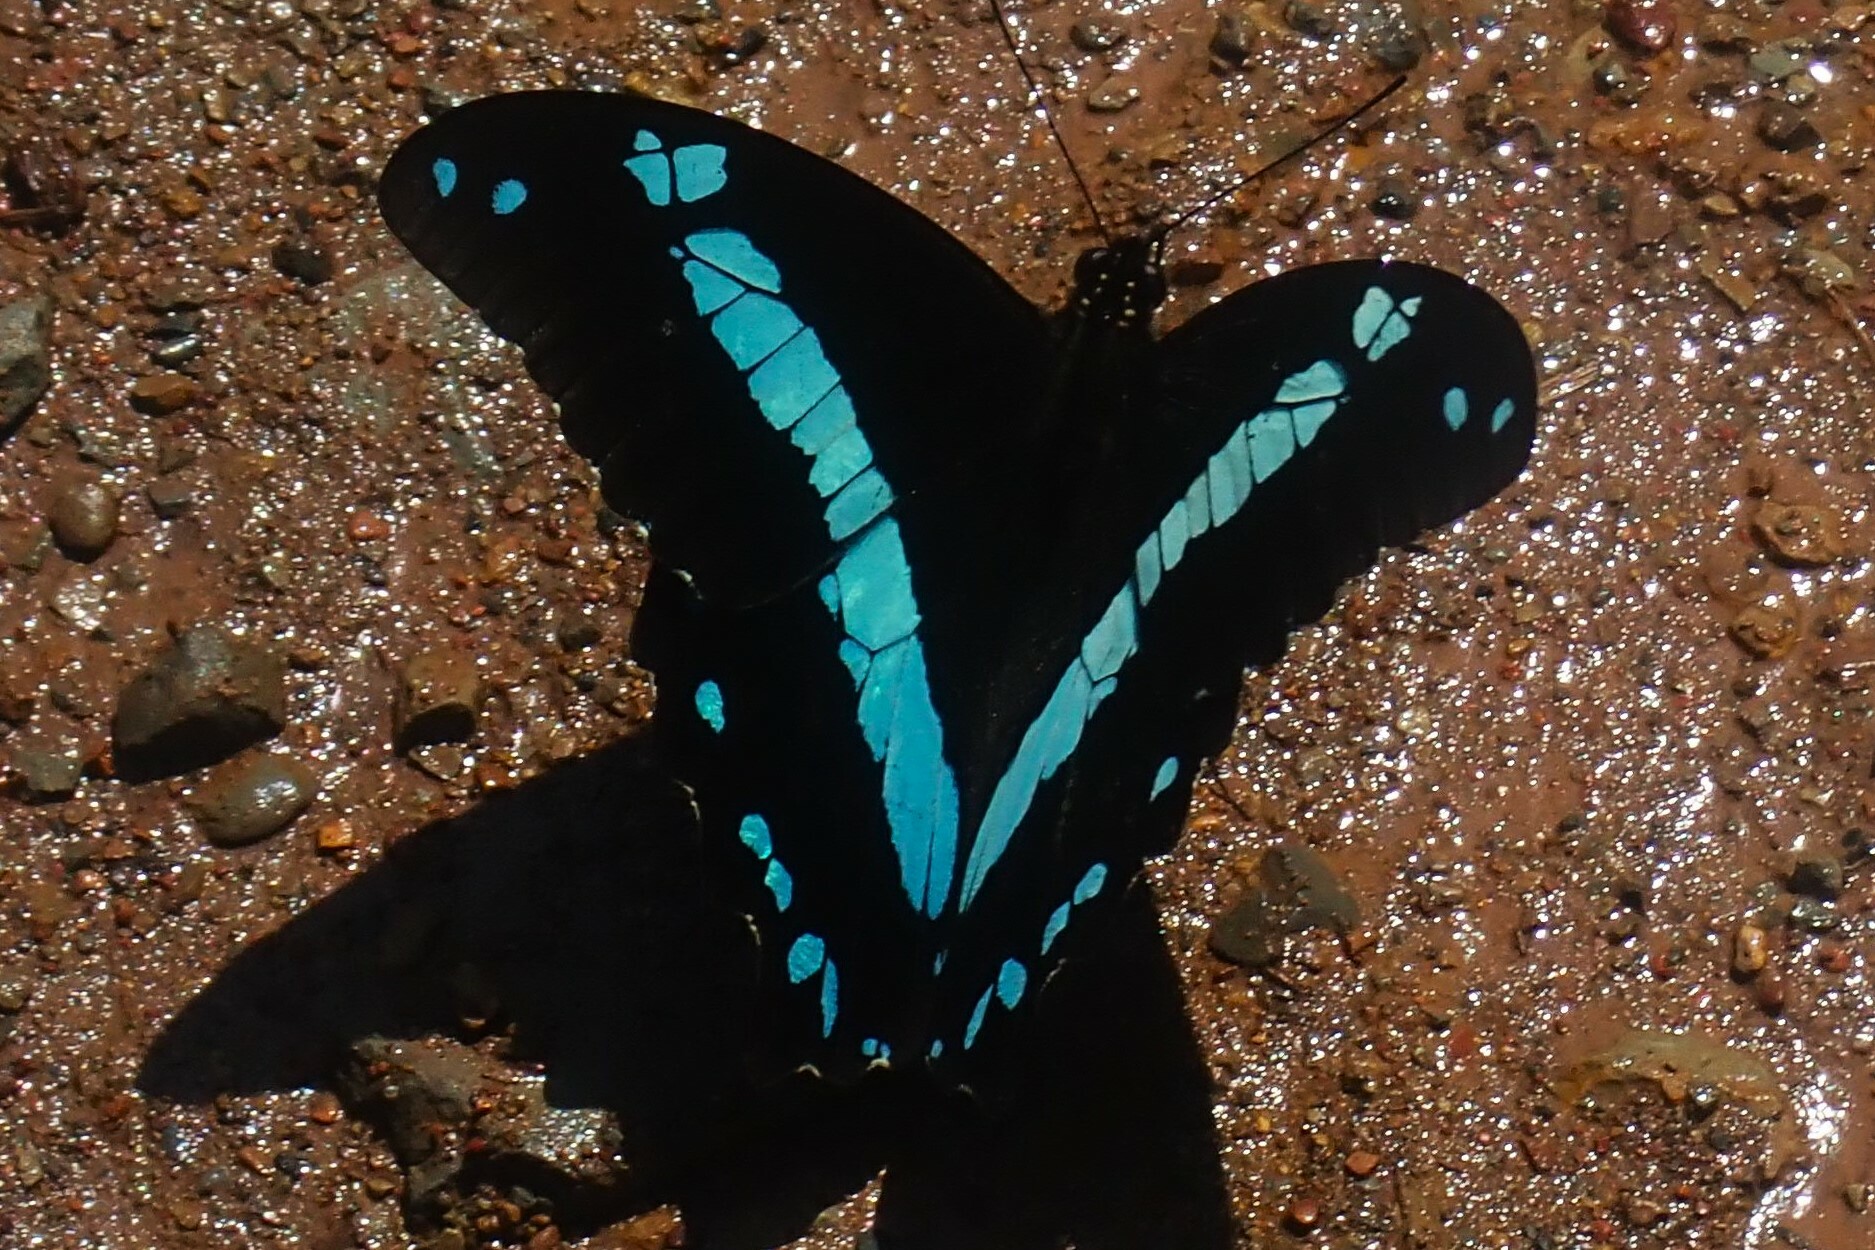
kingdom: Animalia
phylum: Arthropoda
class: Insecta
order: Lepidoptera
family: Papilionidae
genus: Papilio
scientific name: Papilio nireus
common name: Greenbanded swallowtail
